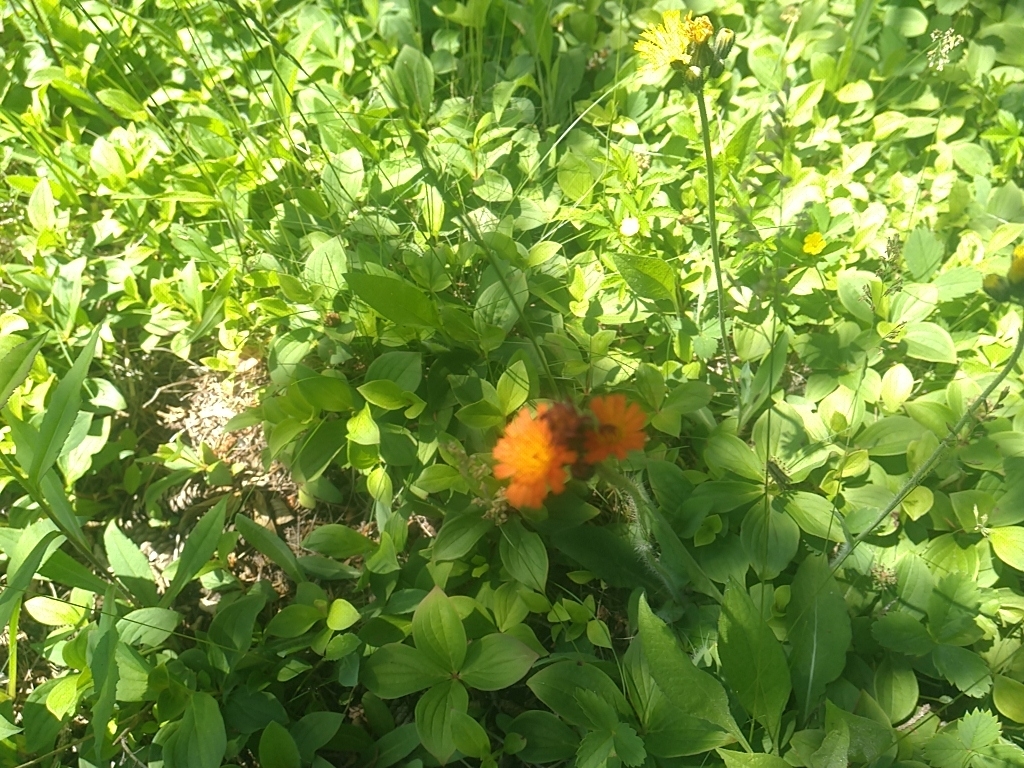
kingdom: Plantae
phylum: Tracheophyta
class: Magnoliopsida
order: Asterales
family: Asteraceae
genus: Pilosella
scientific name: Pilosella aurantiaca
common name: Fox-and-cubs
